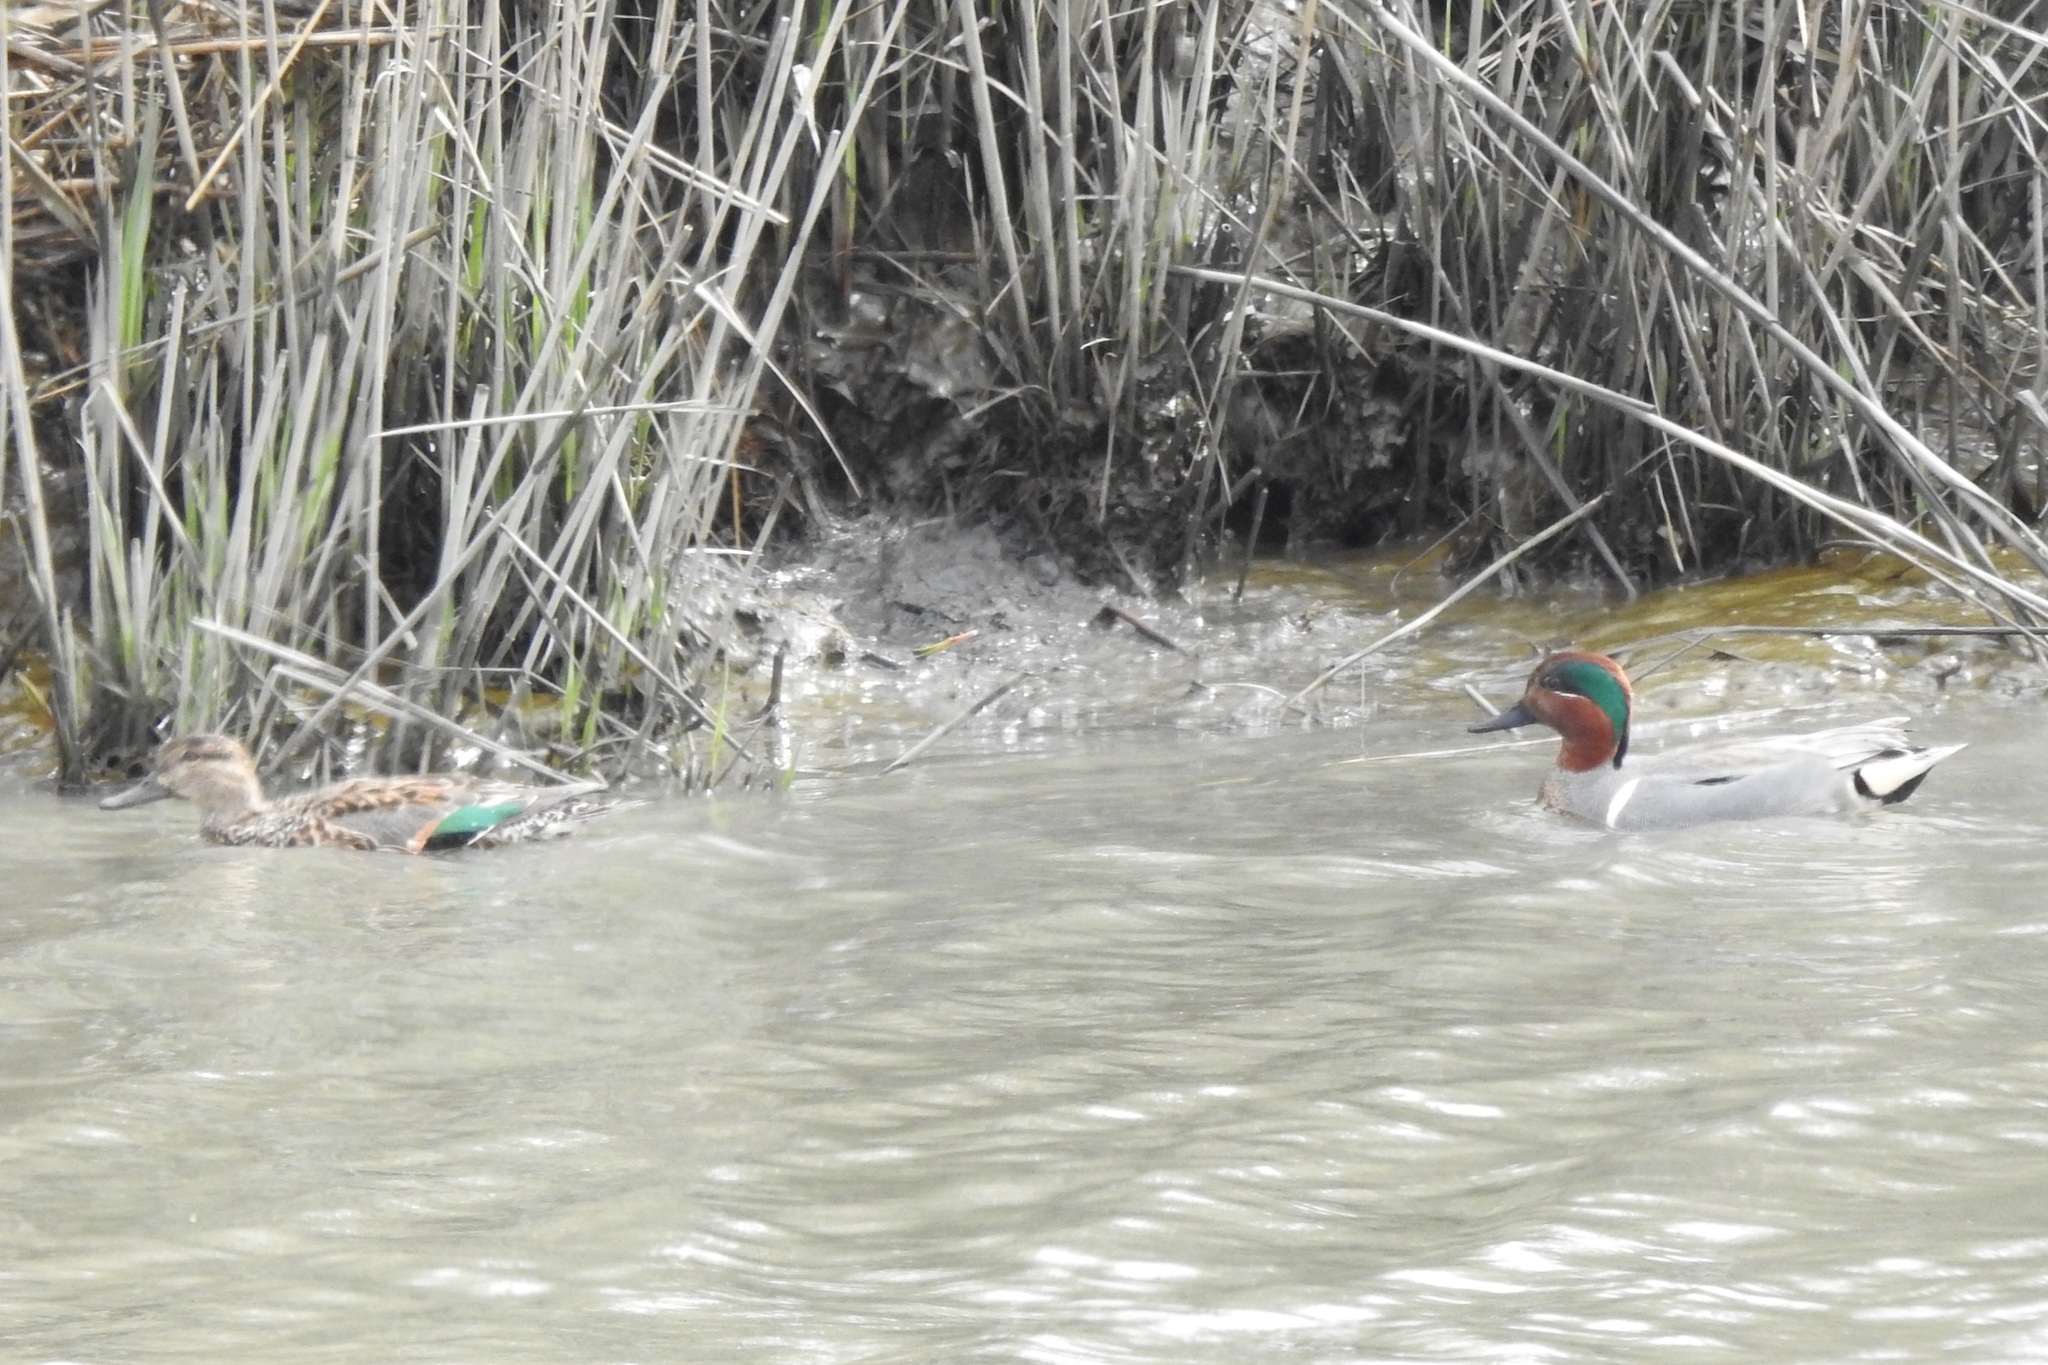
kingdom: Animalia
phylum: Chordata
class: Aves
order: Anseriformes
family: Anatidae
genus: Anas
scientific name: Anas crecca
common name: Eurasian teal
